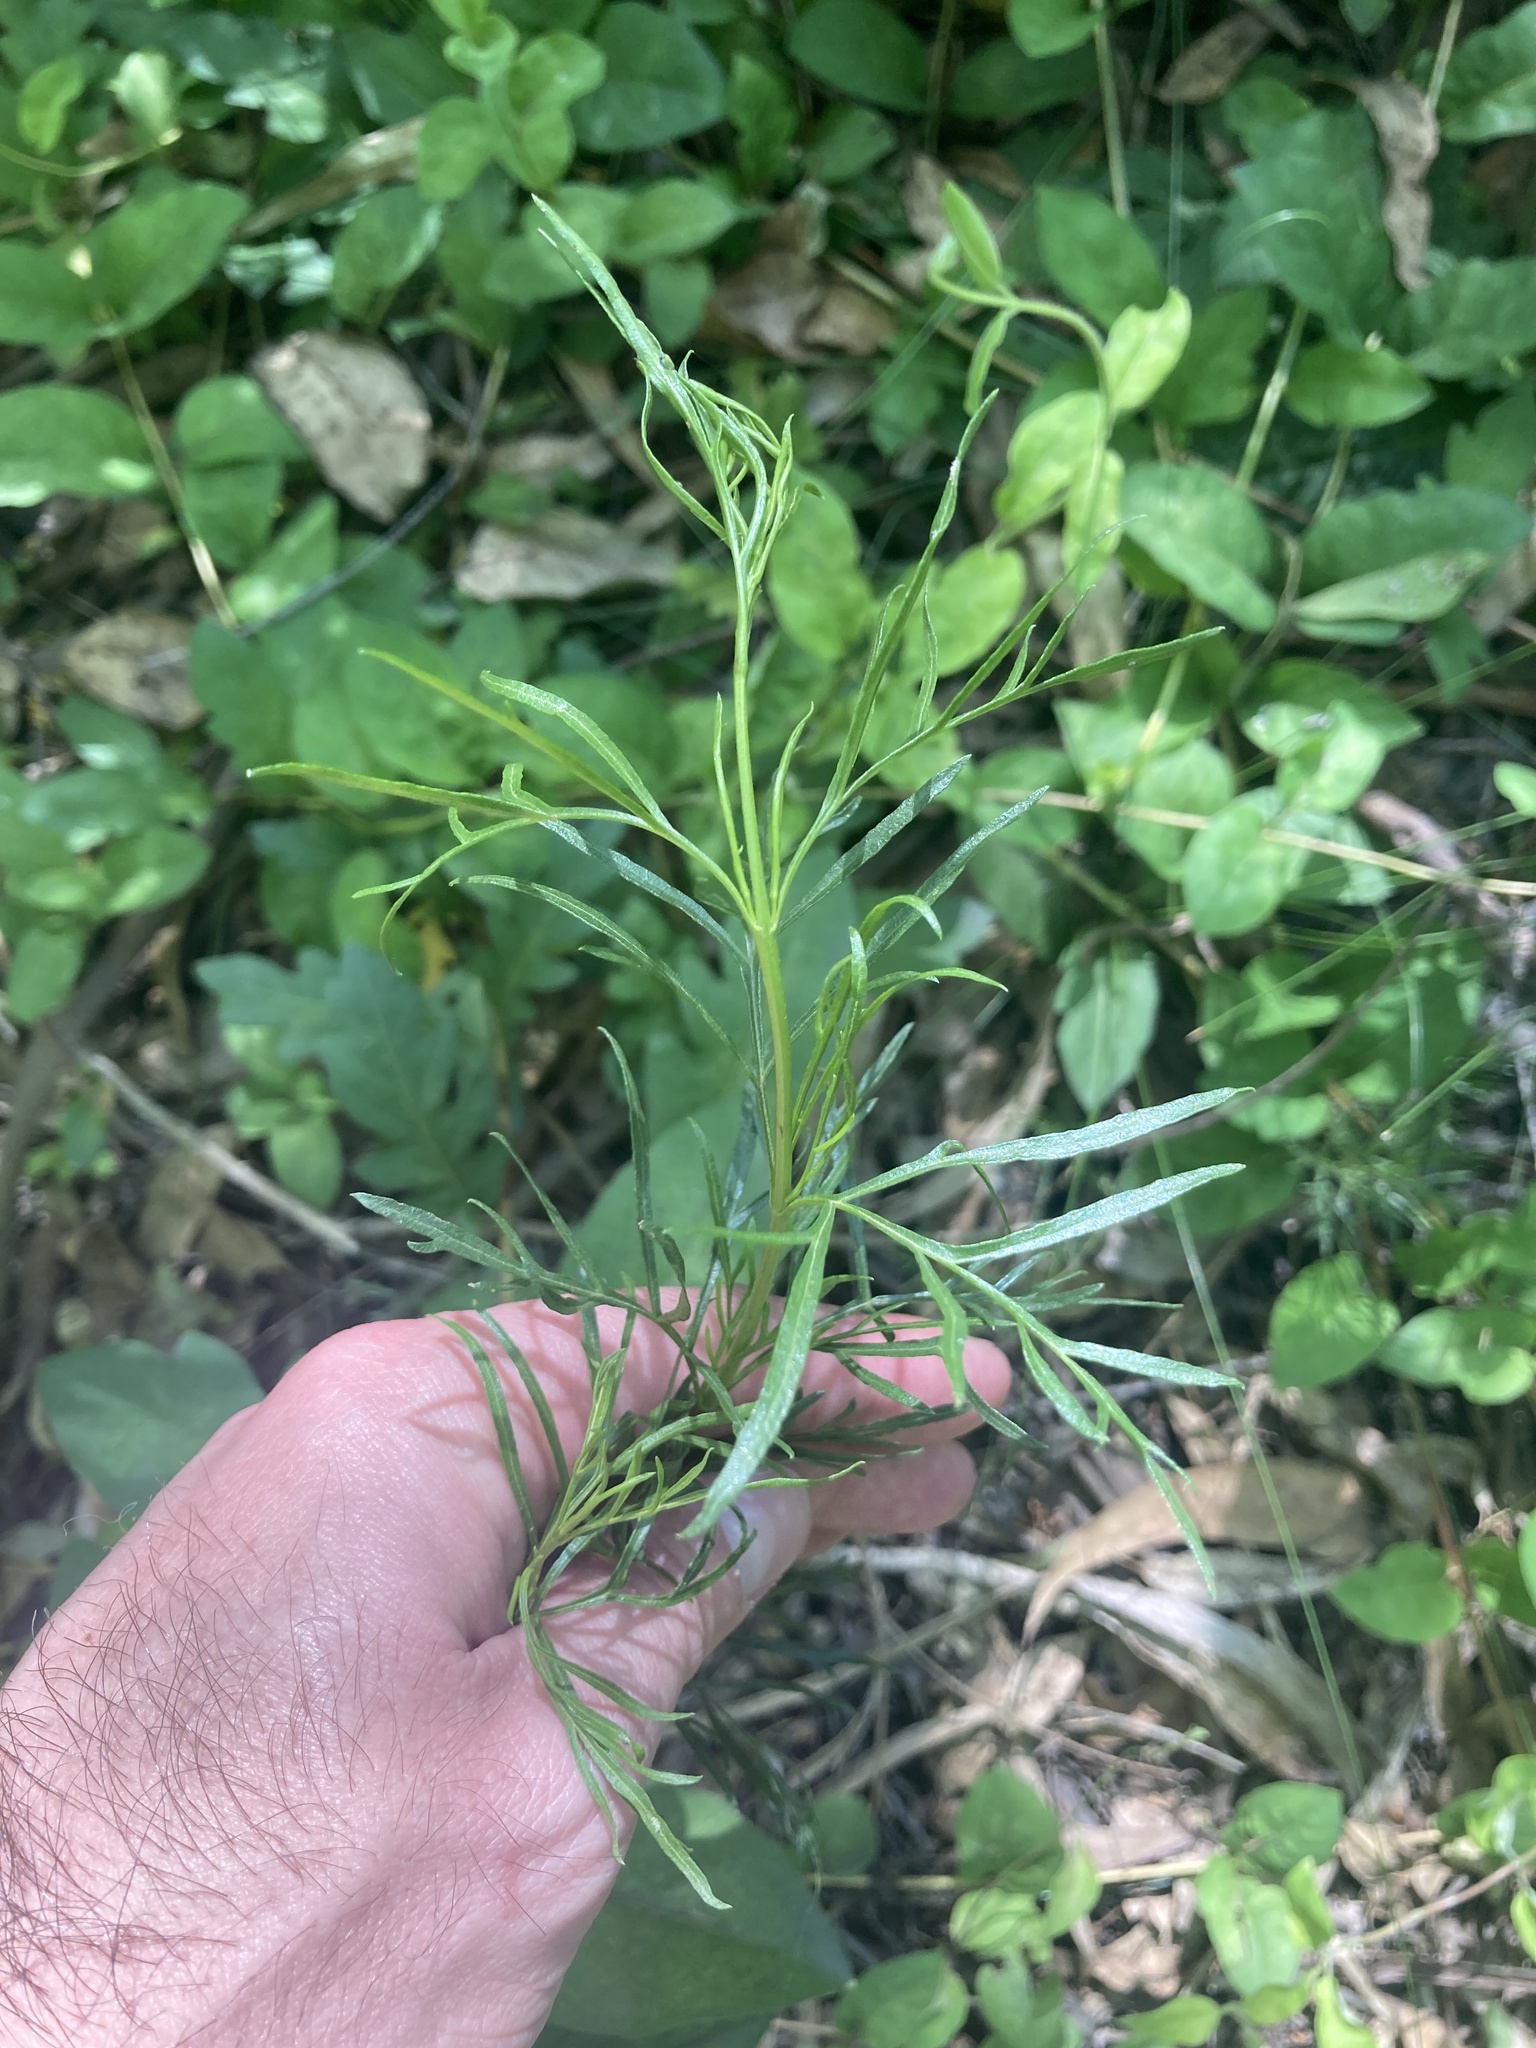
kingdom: Plantae
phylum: Tracheophyta
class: Magnoliopsida
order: Asterales
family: Asteraceae
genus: Acanthostyles
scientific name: Acanthostyles buniifolius
